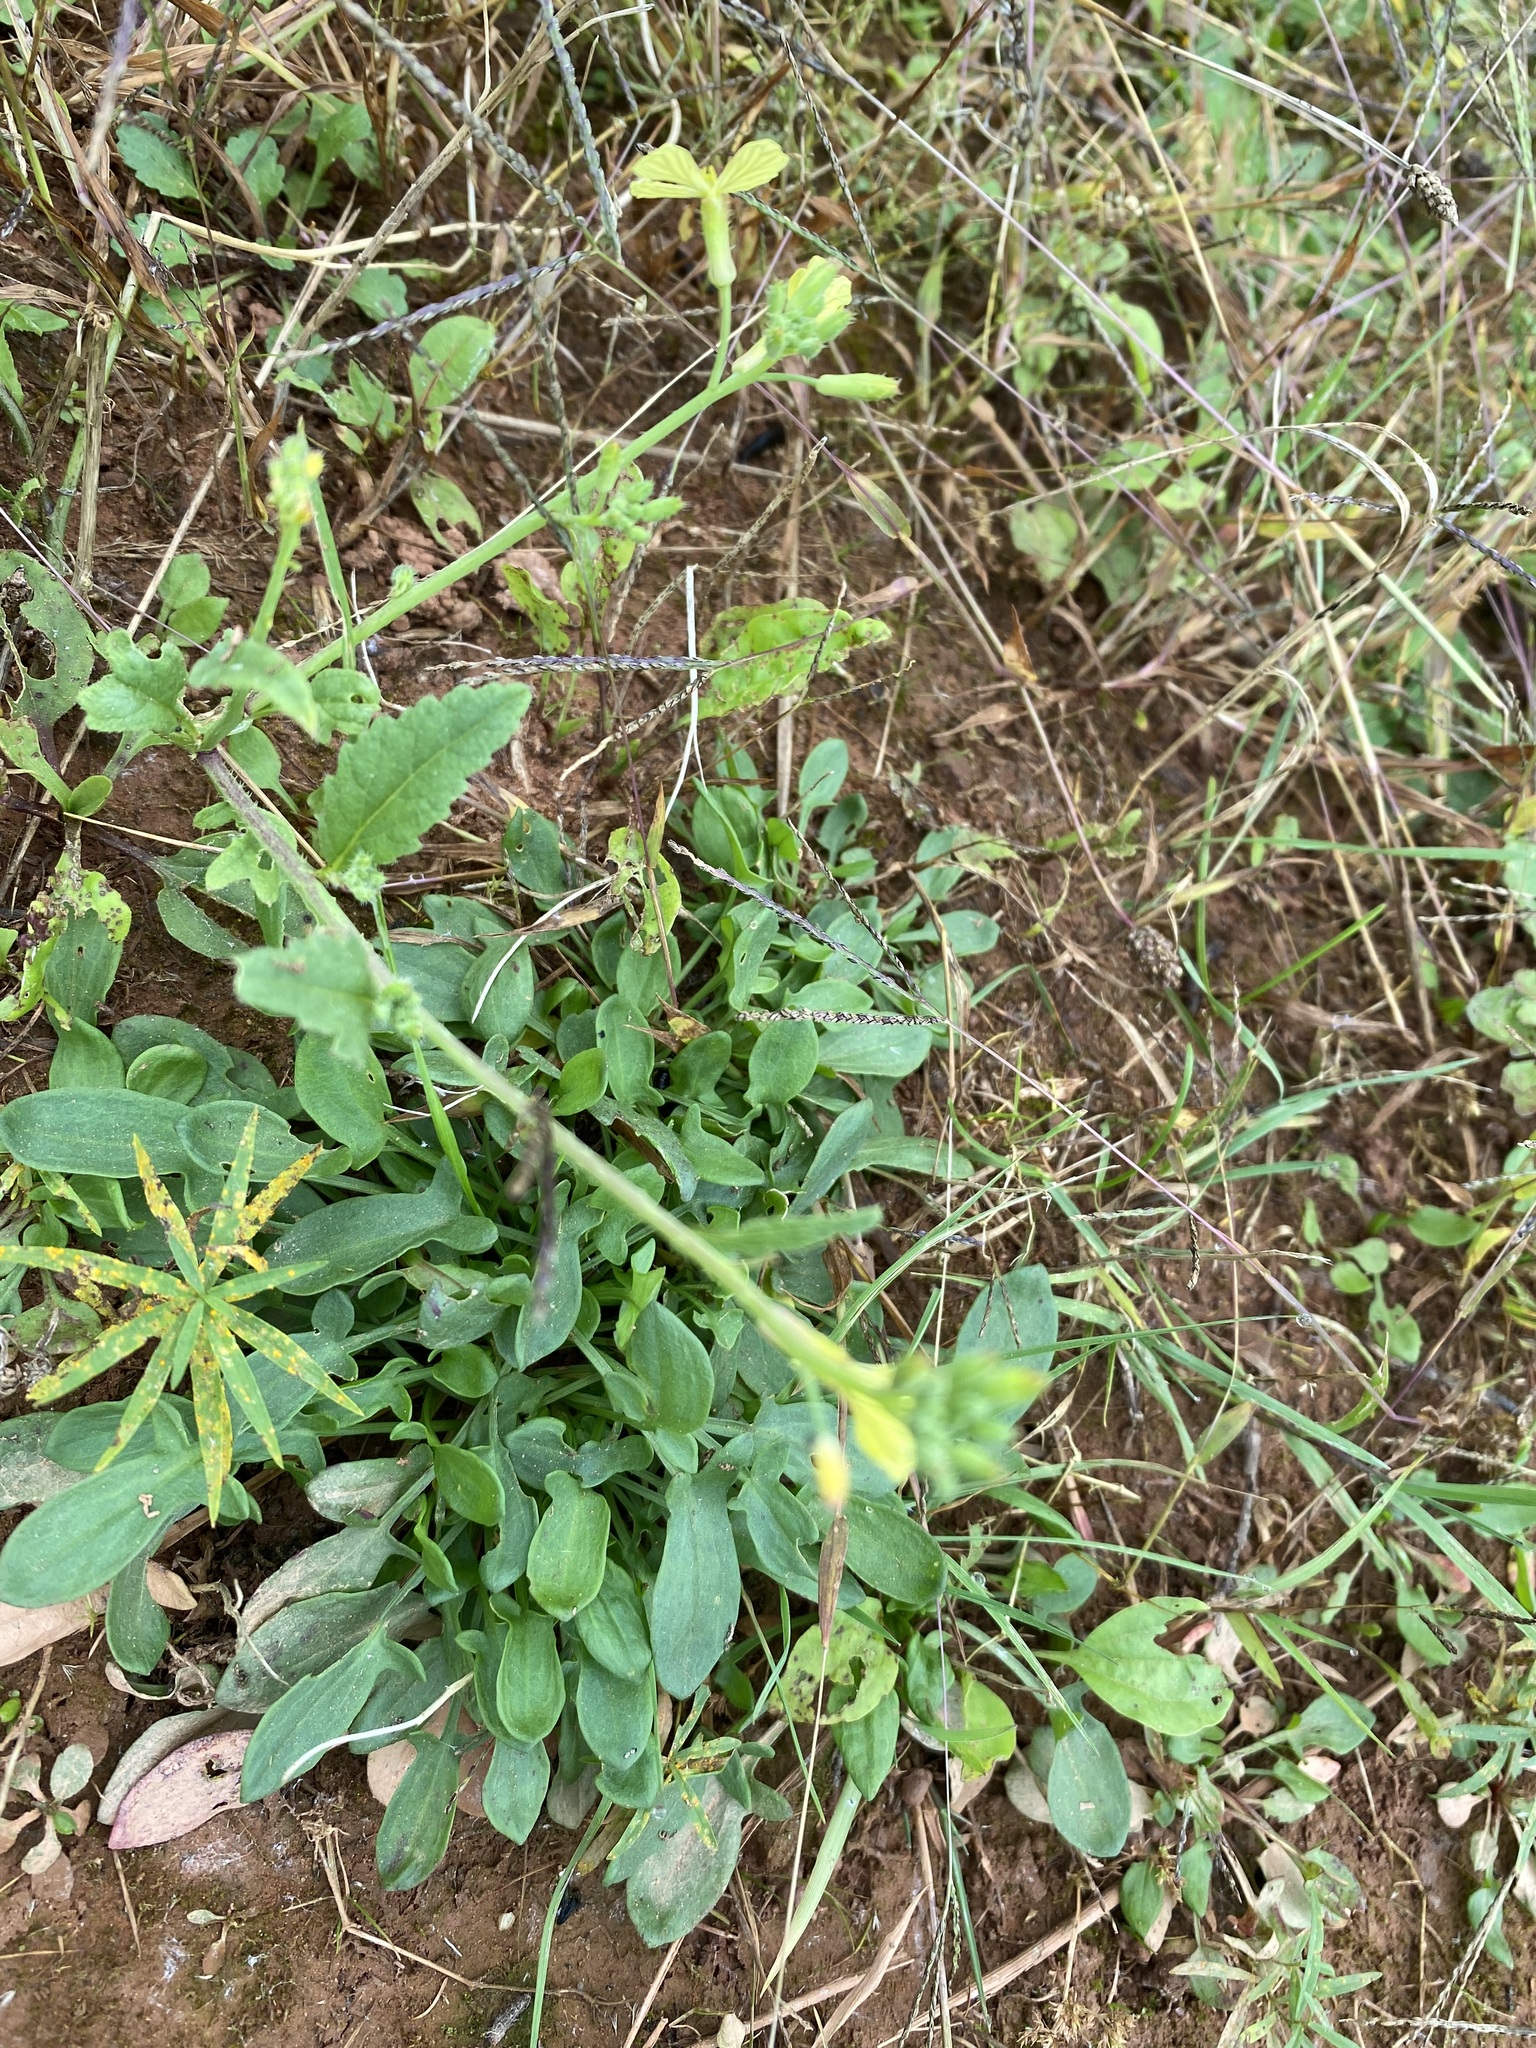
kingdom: Plantae
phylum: Tracheophyta
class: Magnoliopsida
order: Brassicales
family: Brassicaceae
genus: Raphanus
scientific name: Raphanus raphanistrum
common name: Wild radish
